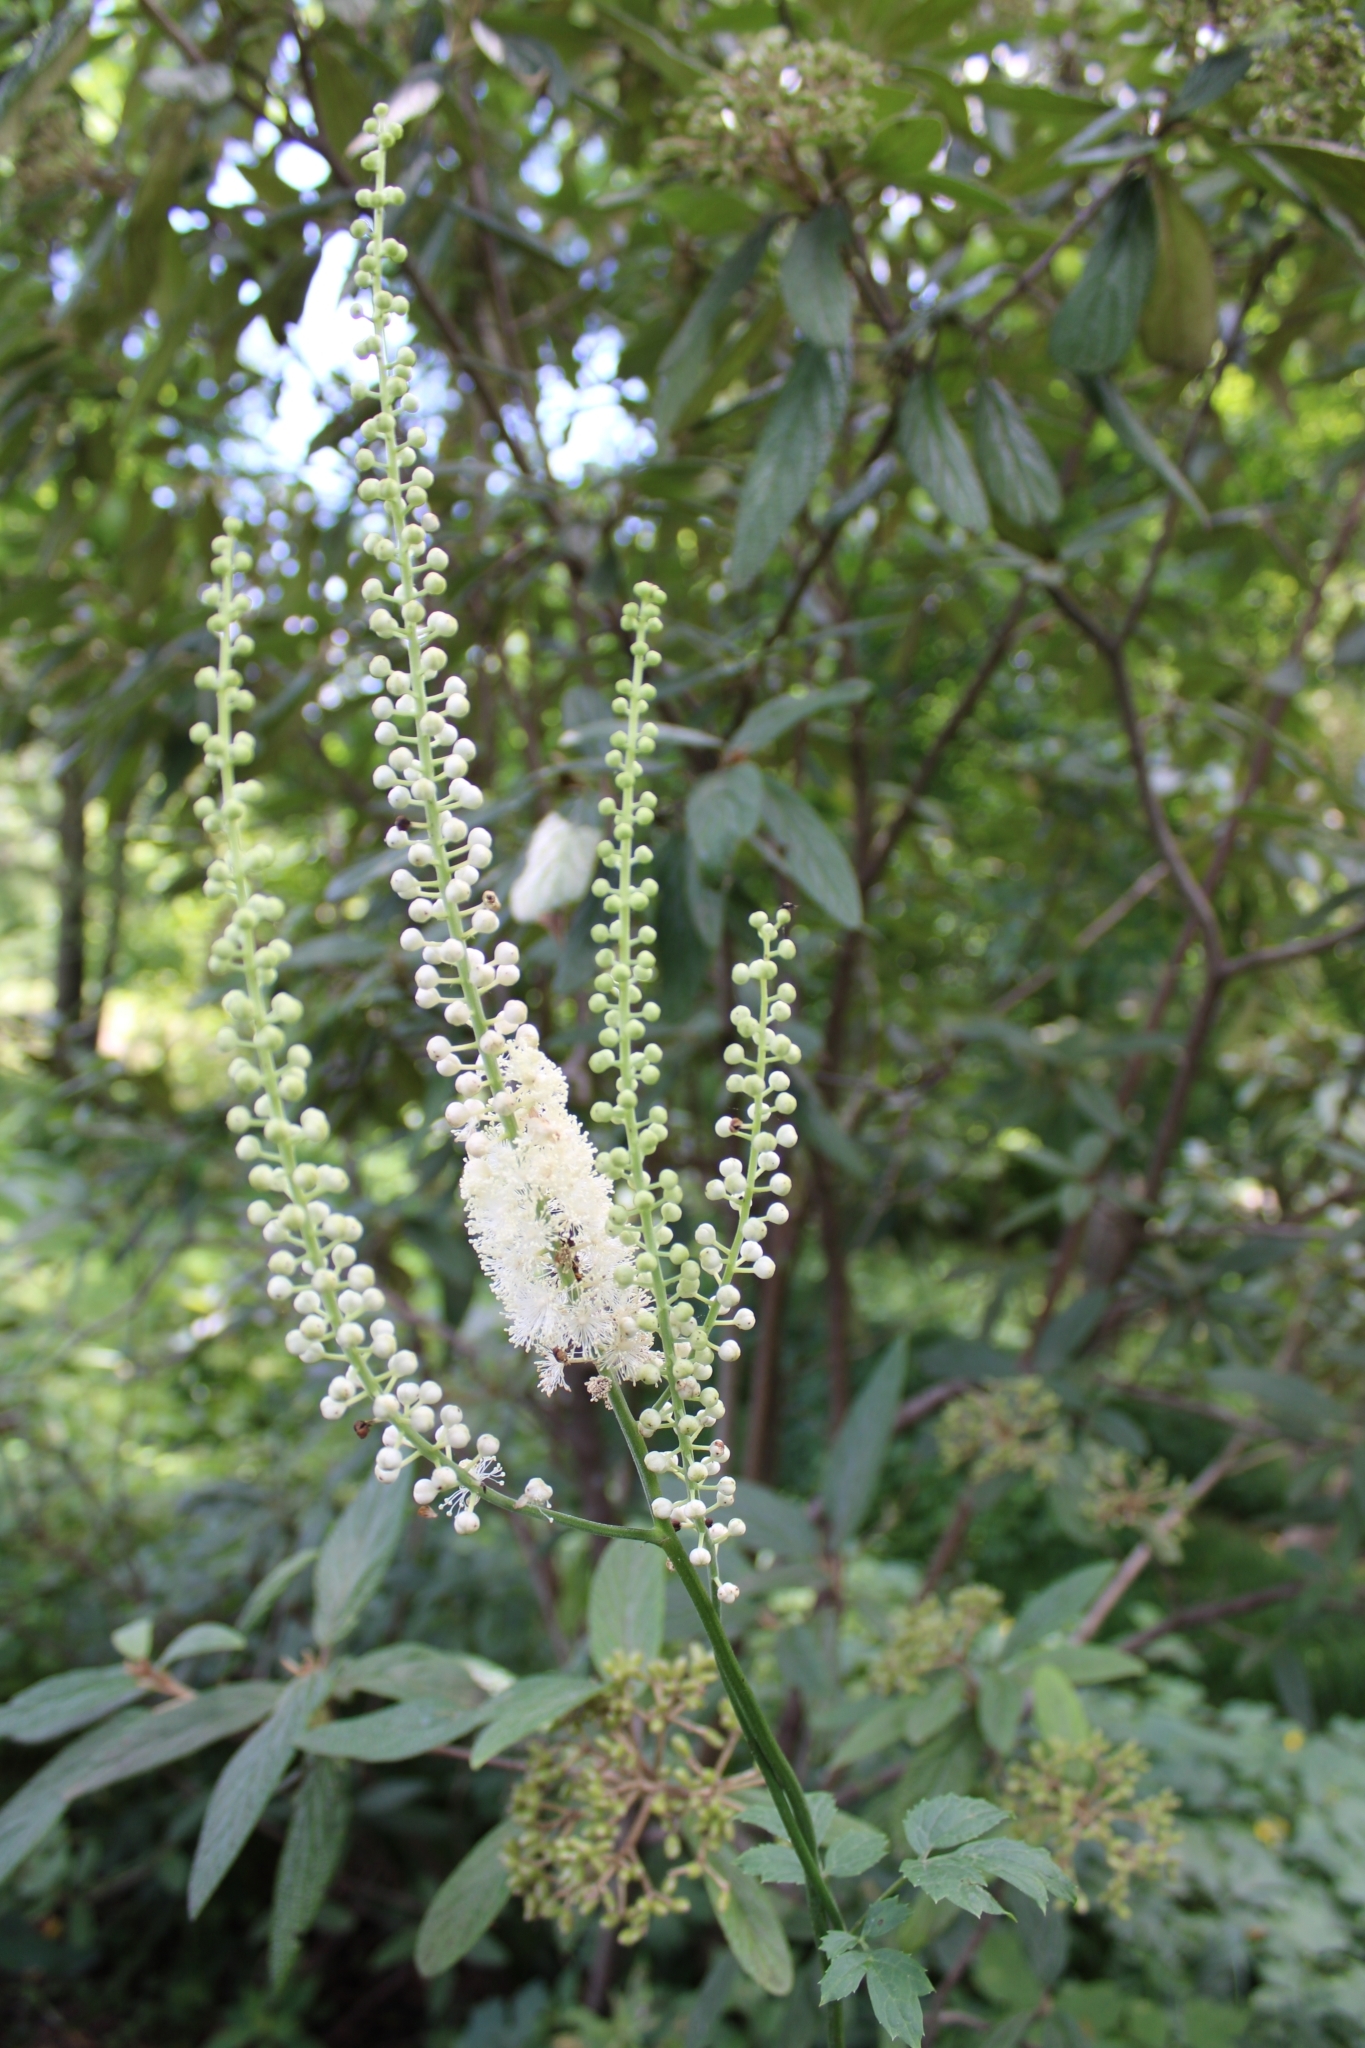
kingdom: Plantae
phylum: Tracheophyta
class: Magnoliopsida
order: Ranunculales
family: Ranunculaceae
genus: Actaea
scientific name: Actaea racemosa
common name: Black cohosh
